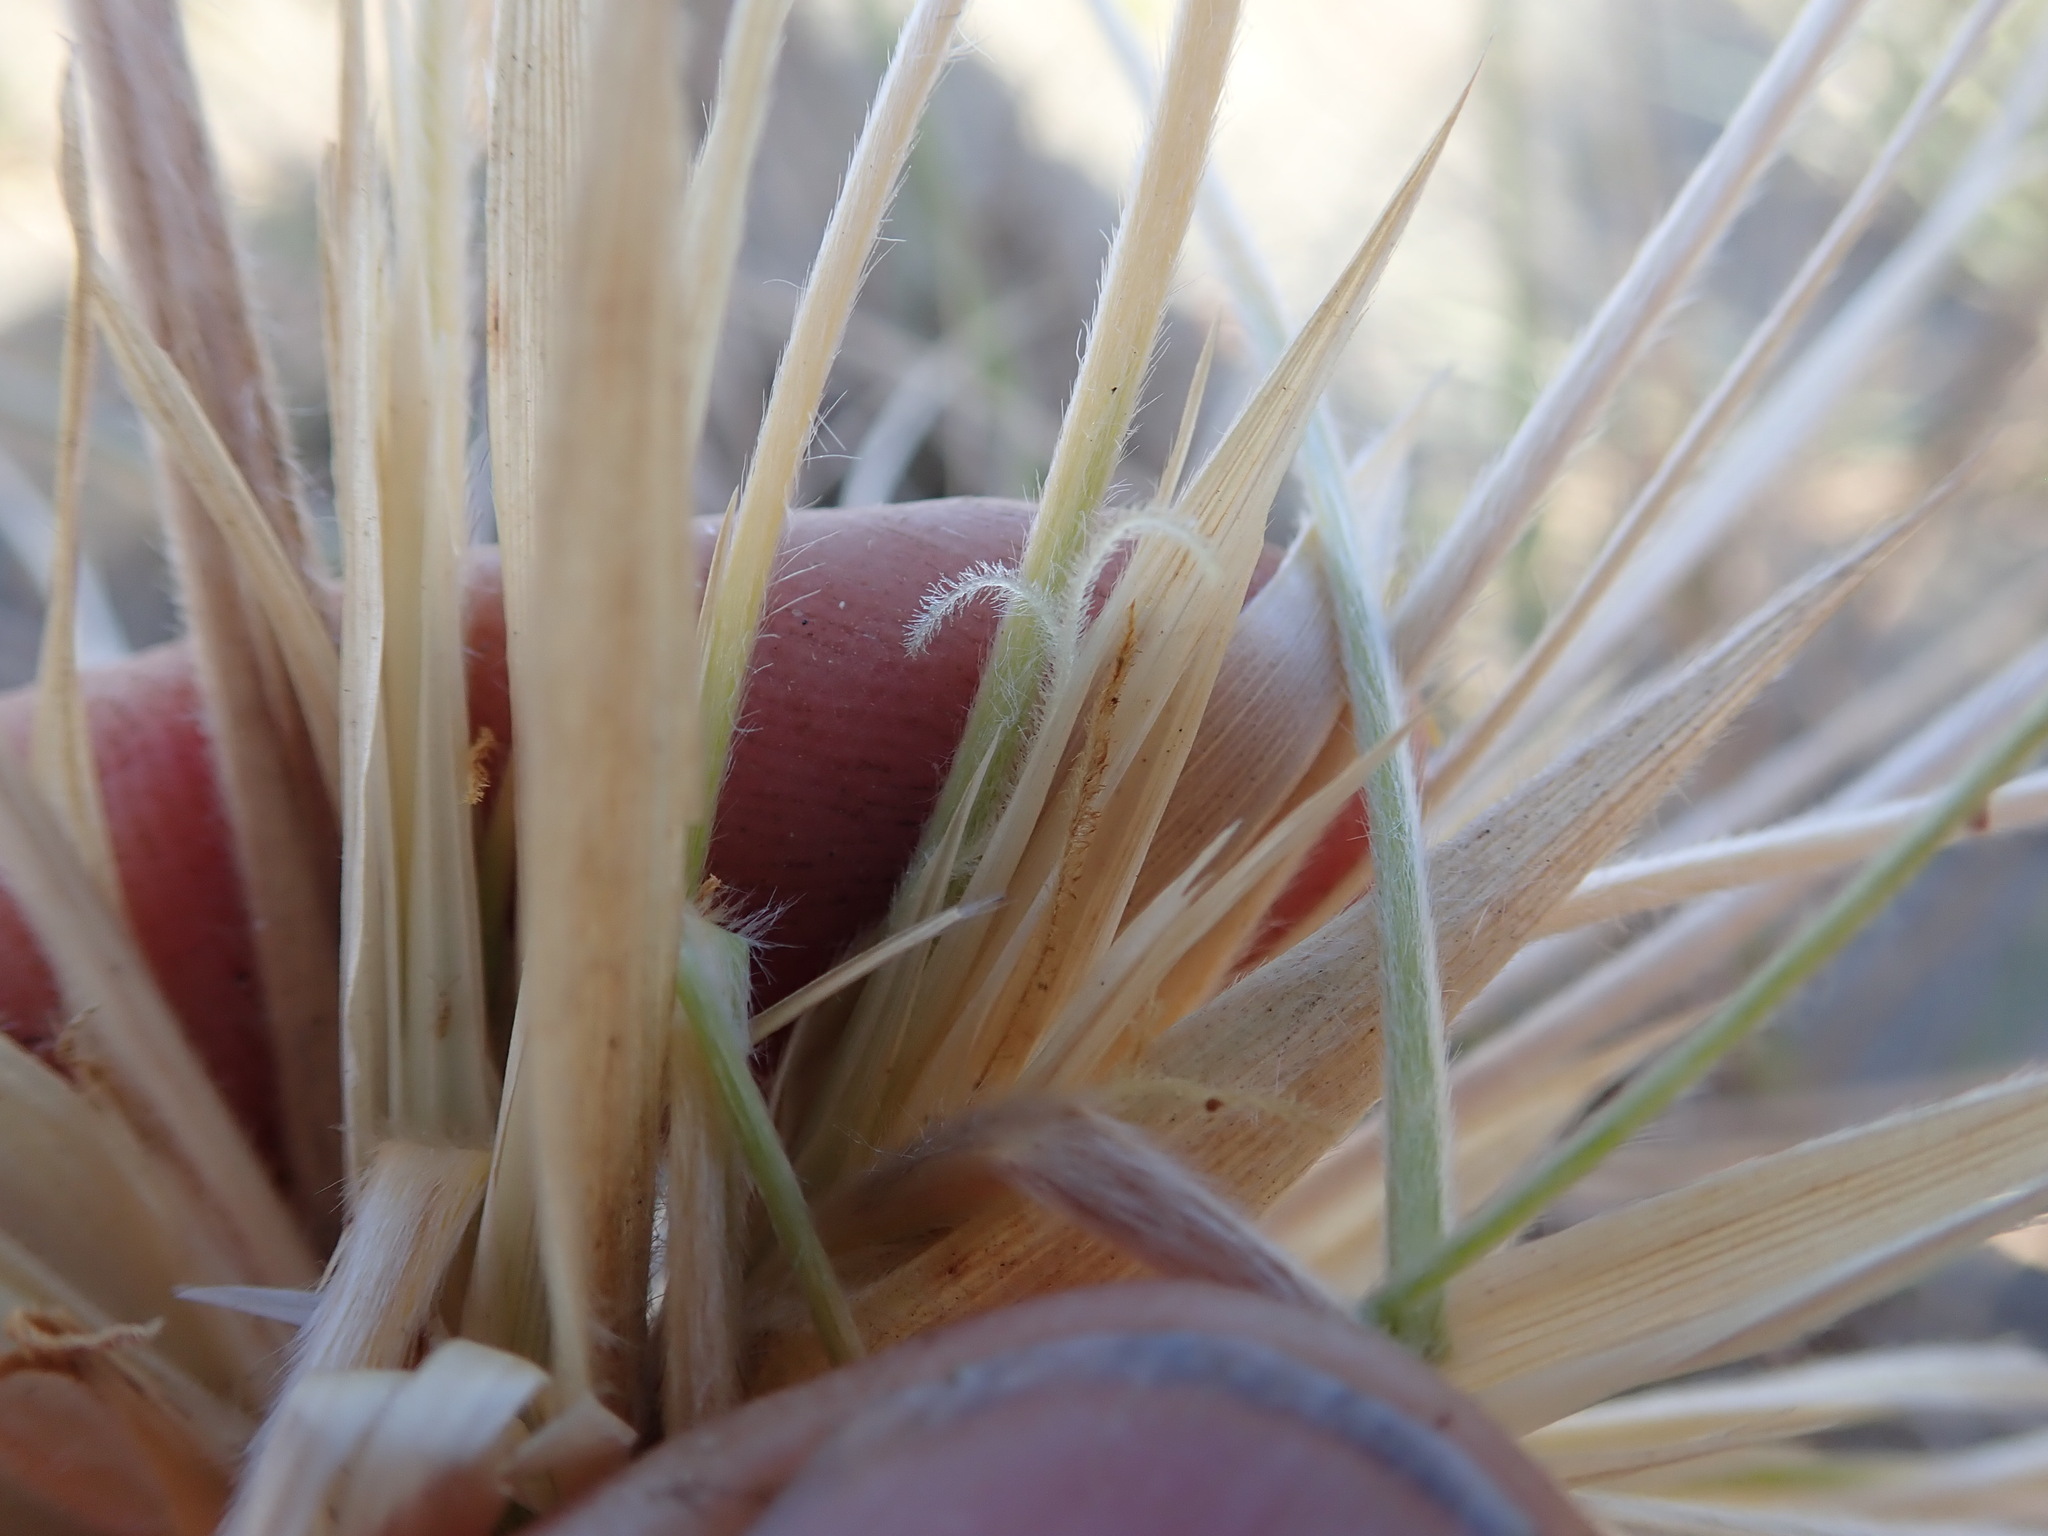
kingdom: Plantae
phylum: Tracheophyta
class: Liliopsida
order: Poales
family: Poaceae
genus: Spinifex
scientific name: Spinifex sericeus
